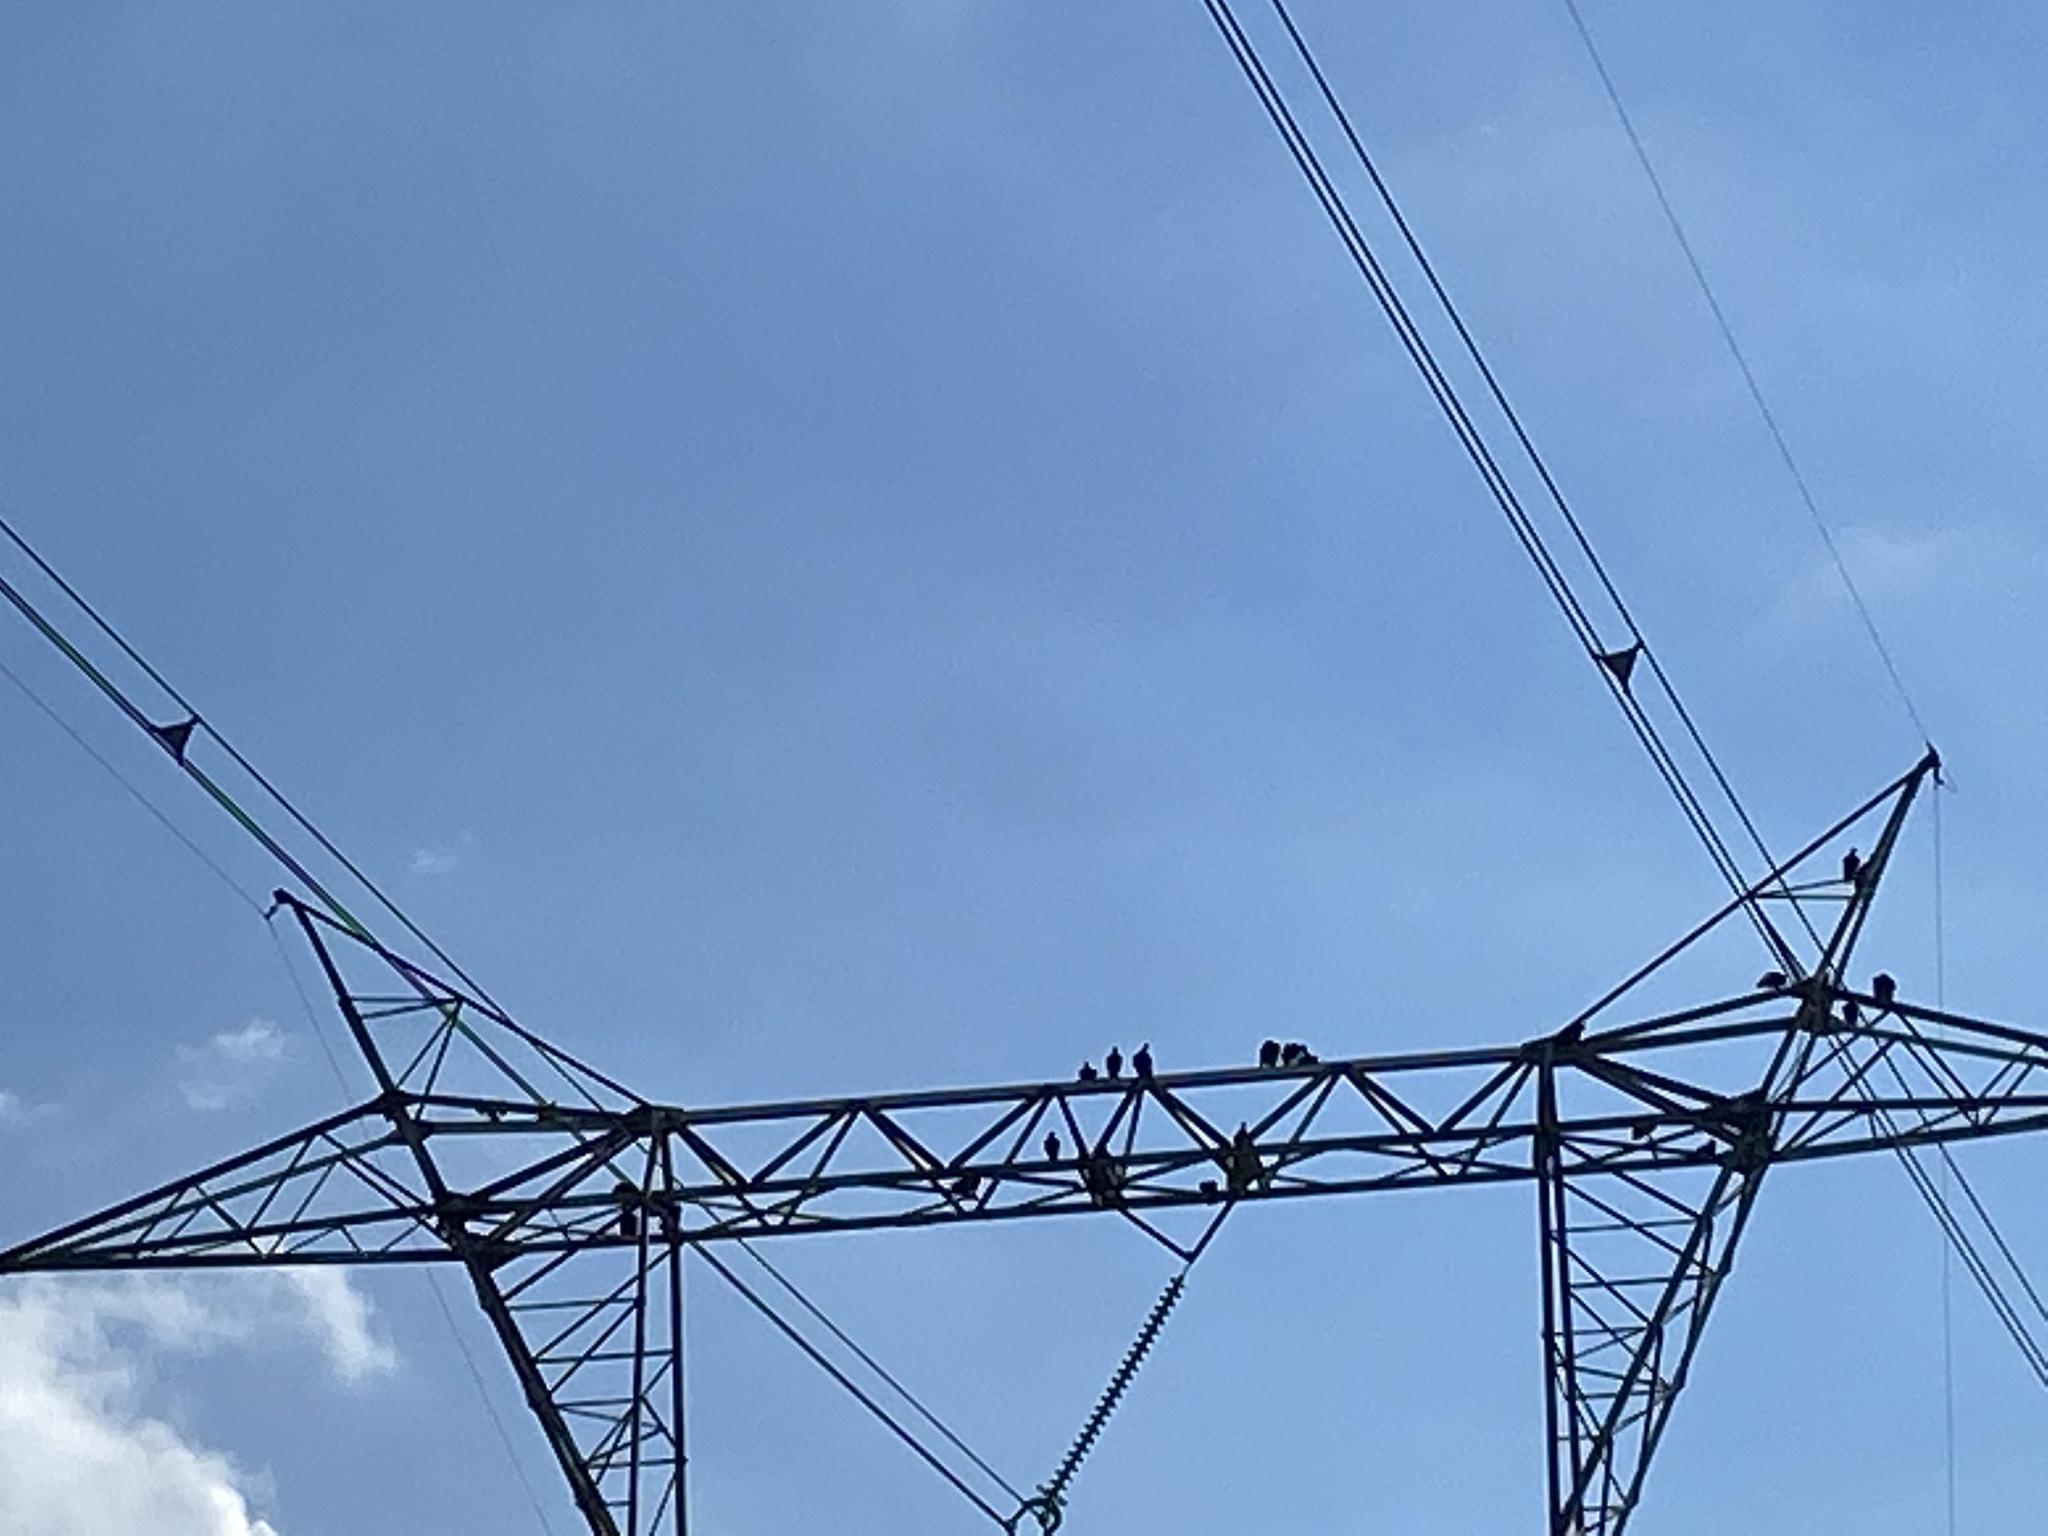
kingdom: Animalia
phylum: Chordata
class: Aves
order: Accipitriformes
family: Cathartidae
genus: Coragyps
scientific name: Coragyps atratus
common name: Black vulture
